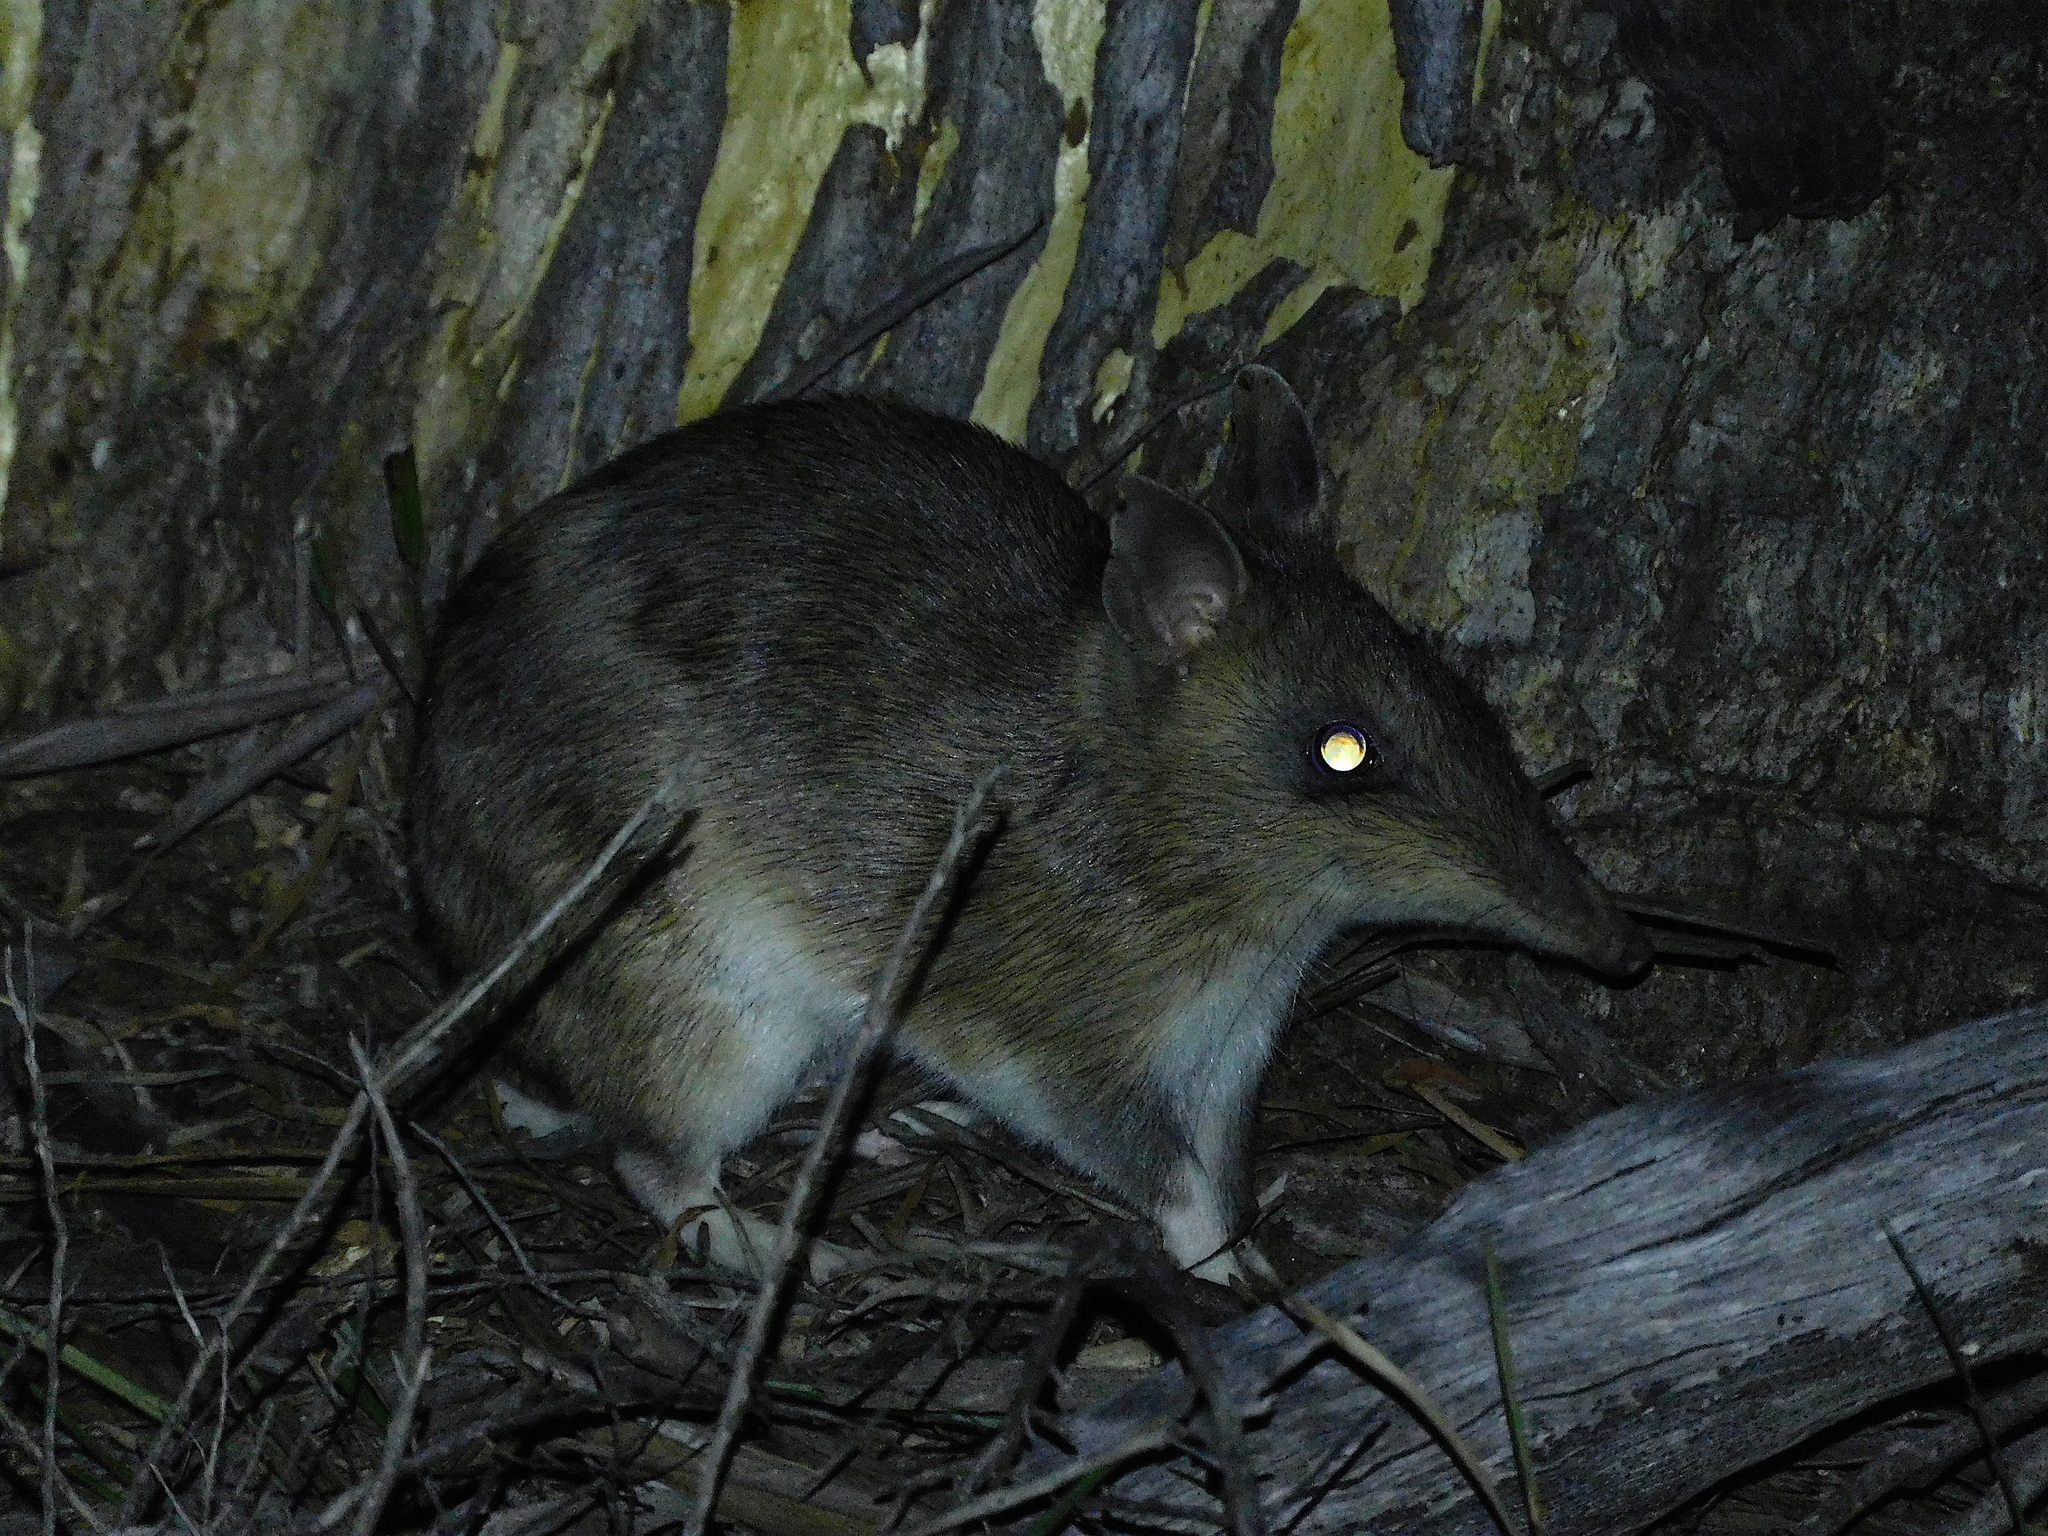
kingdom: Animalia
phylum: Chordata
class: Mammalia
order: Peramelemorphia
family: Peramelidae
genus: Perameles
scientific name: Perameles gunnii
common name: Eastern barred bandicoot
